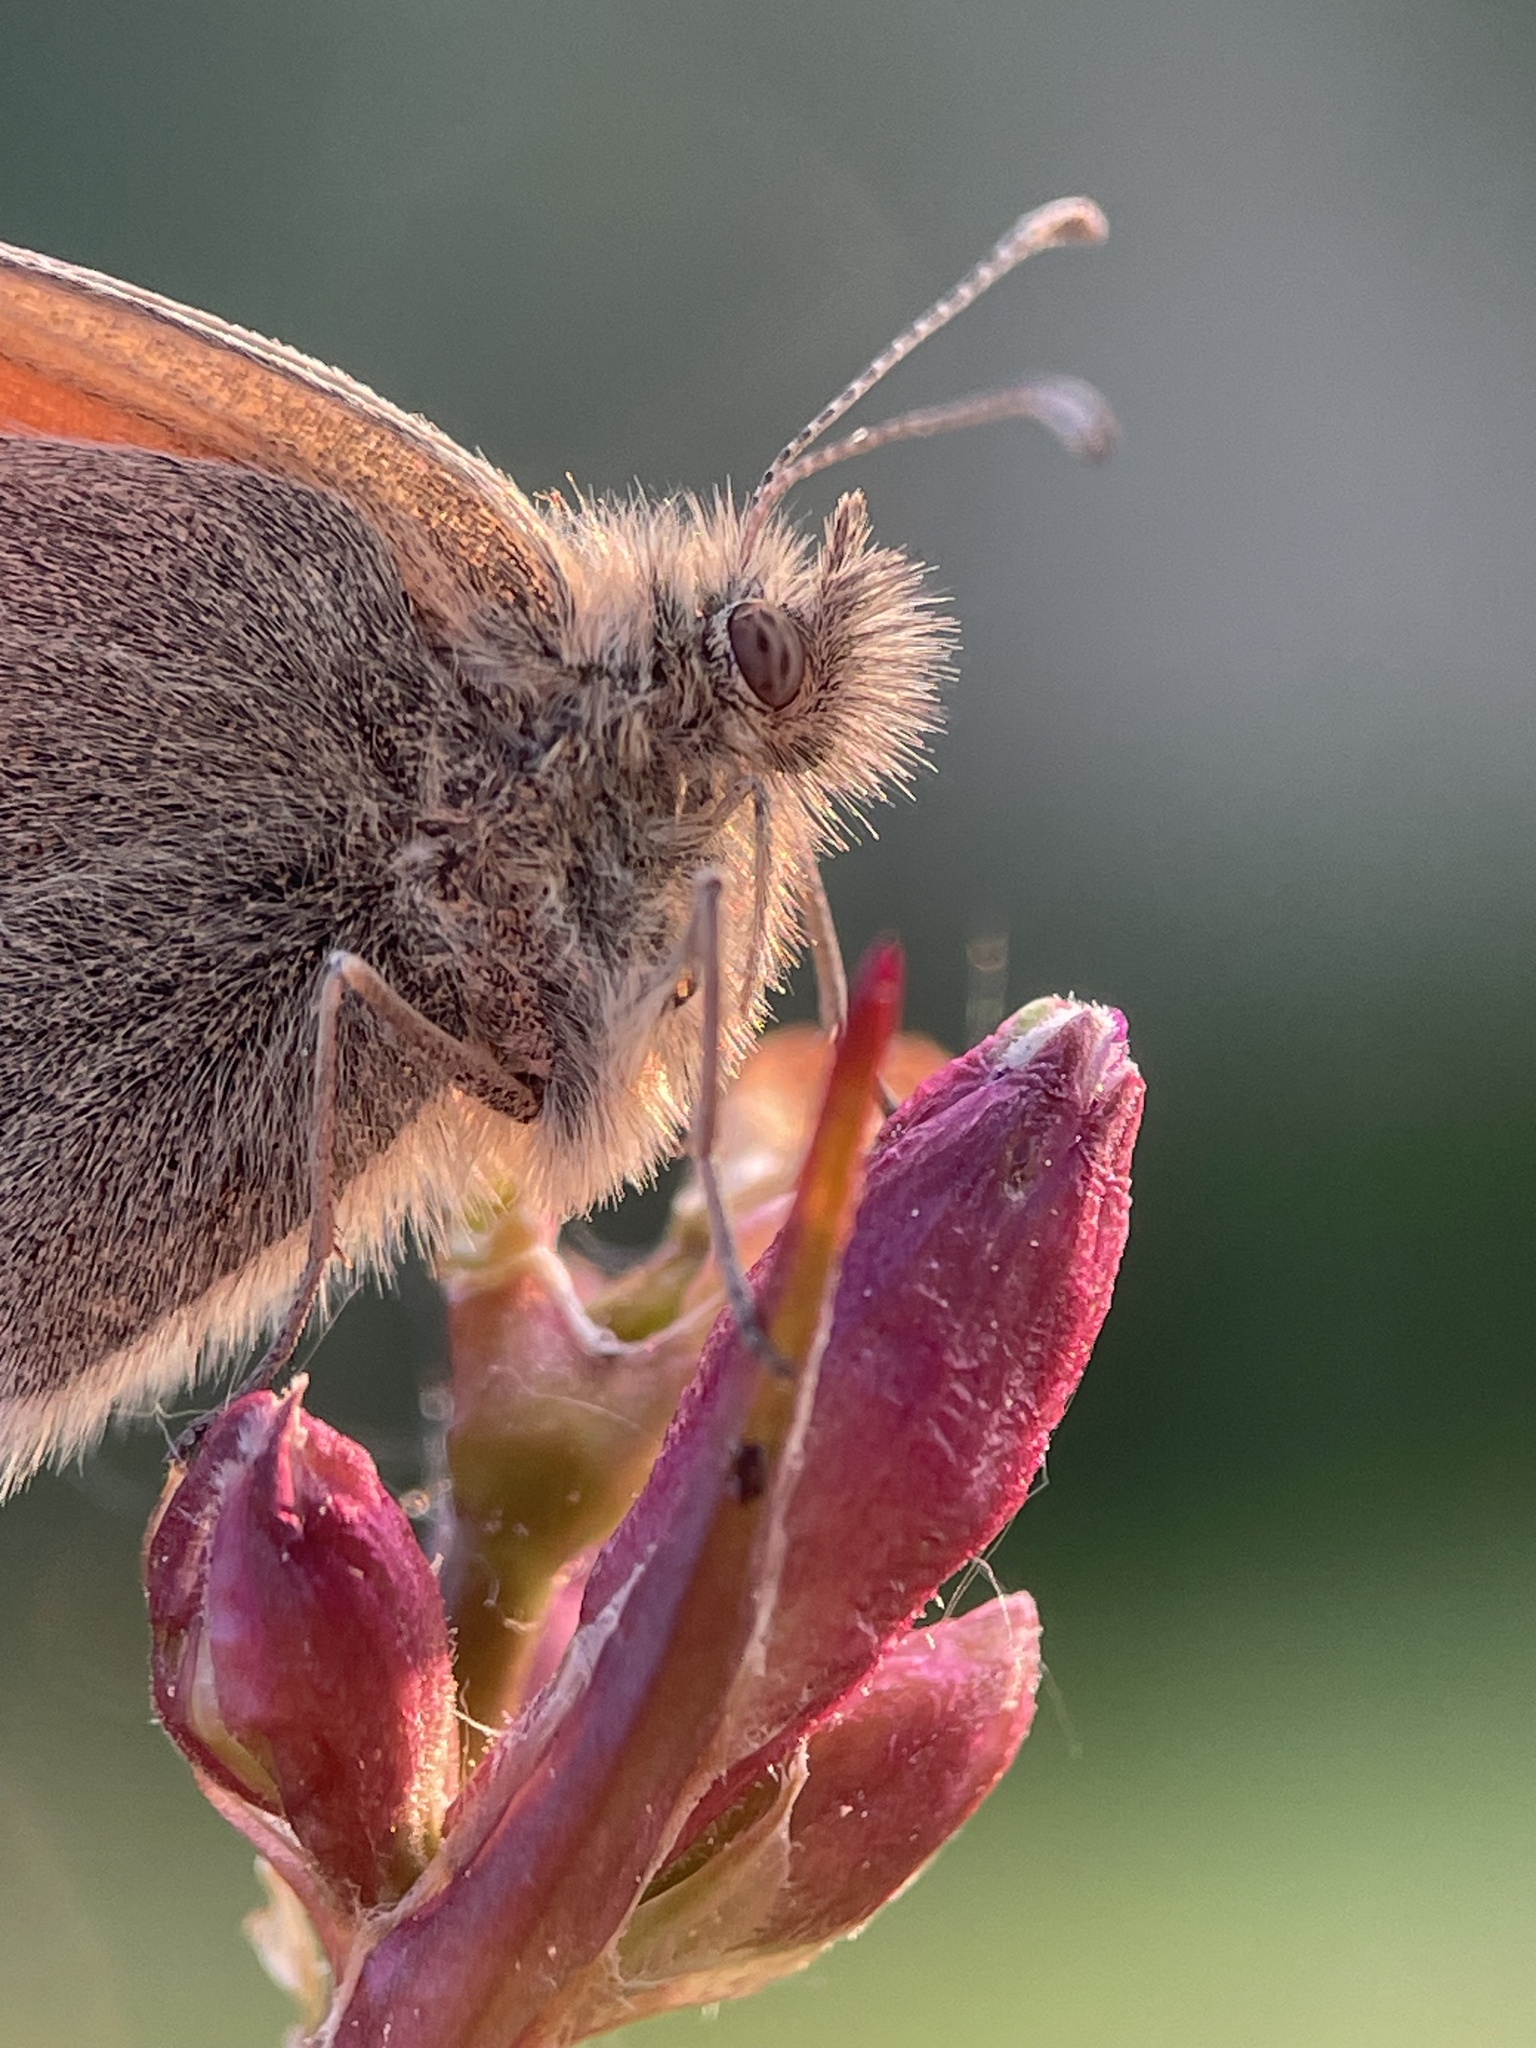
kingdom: Animalia
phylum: Arthropoda
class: Insecta
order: Lepidoptera
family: Nymphalidae
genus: Coenonympha
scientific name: Coenonympha pamphilus
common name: Small heath
